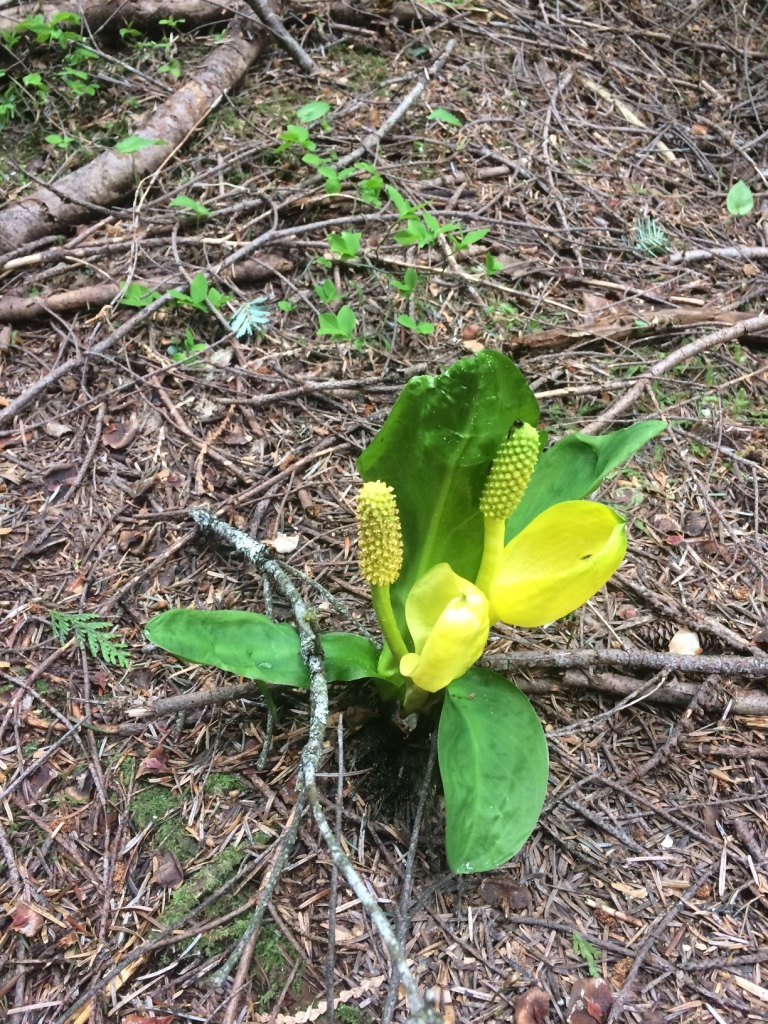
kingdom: Plantae
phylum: Tracheophyta
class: Liliopsida
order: Alismatales
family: Araceae
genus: Lysichiton
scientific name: Lysichiton americanus
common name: American skunk cabbage
